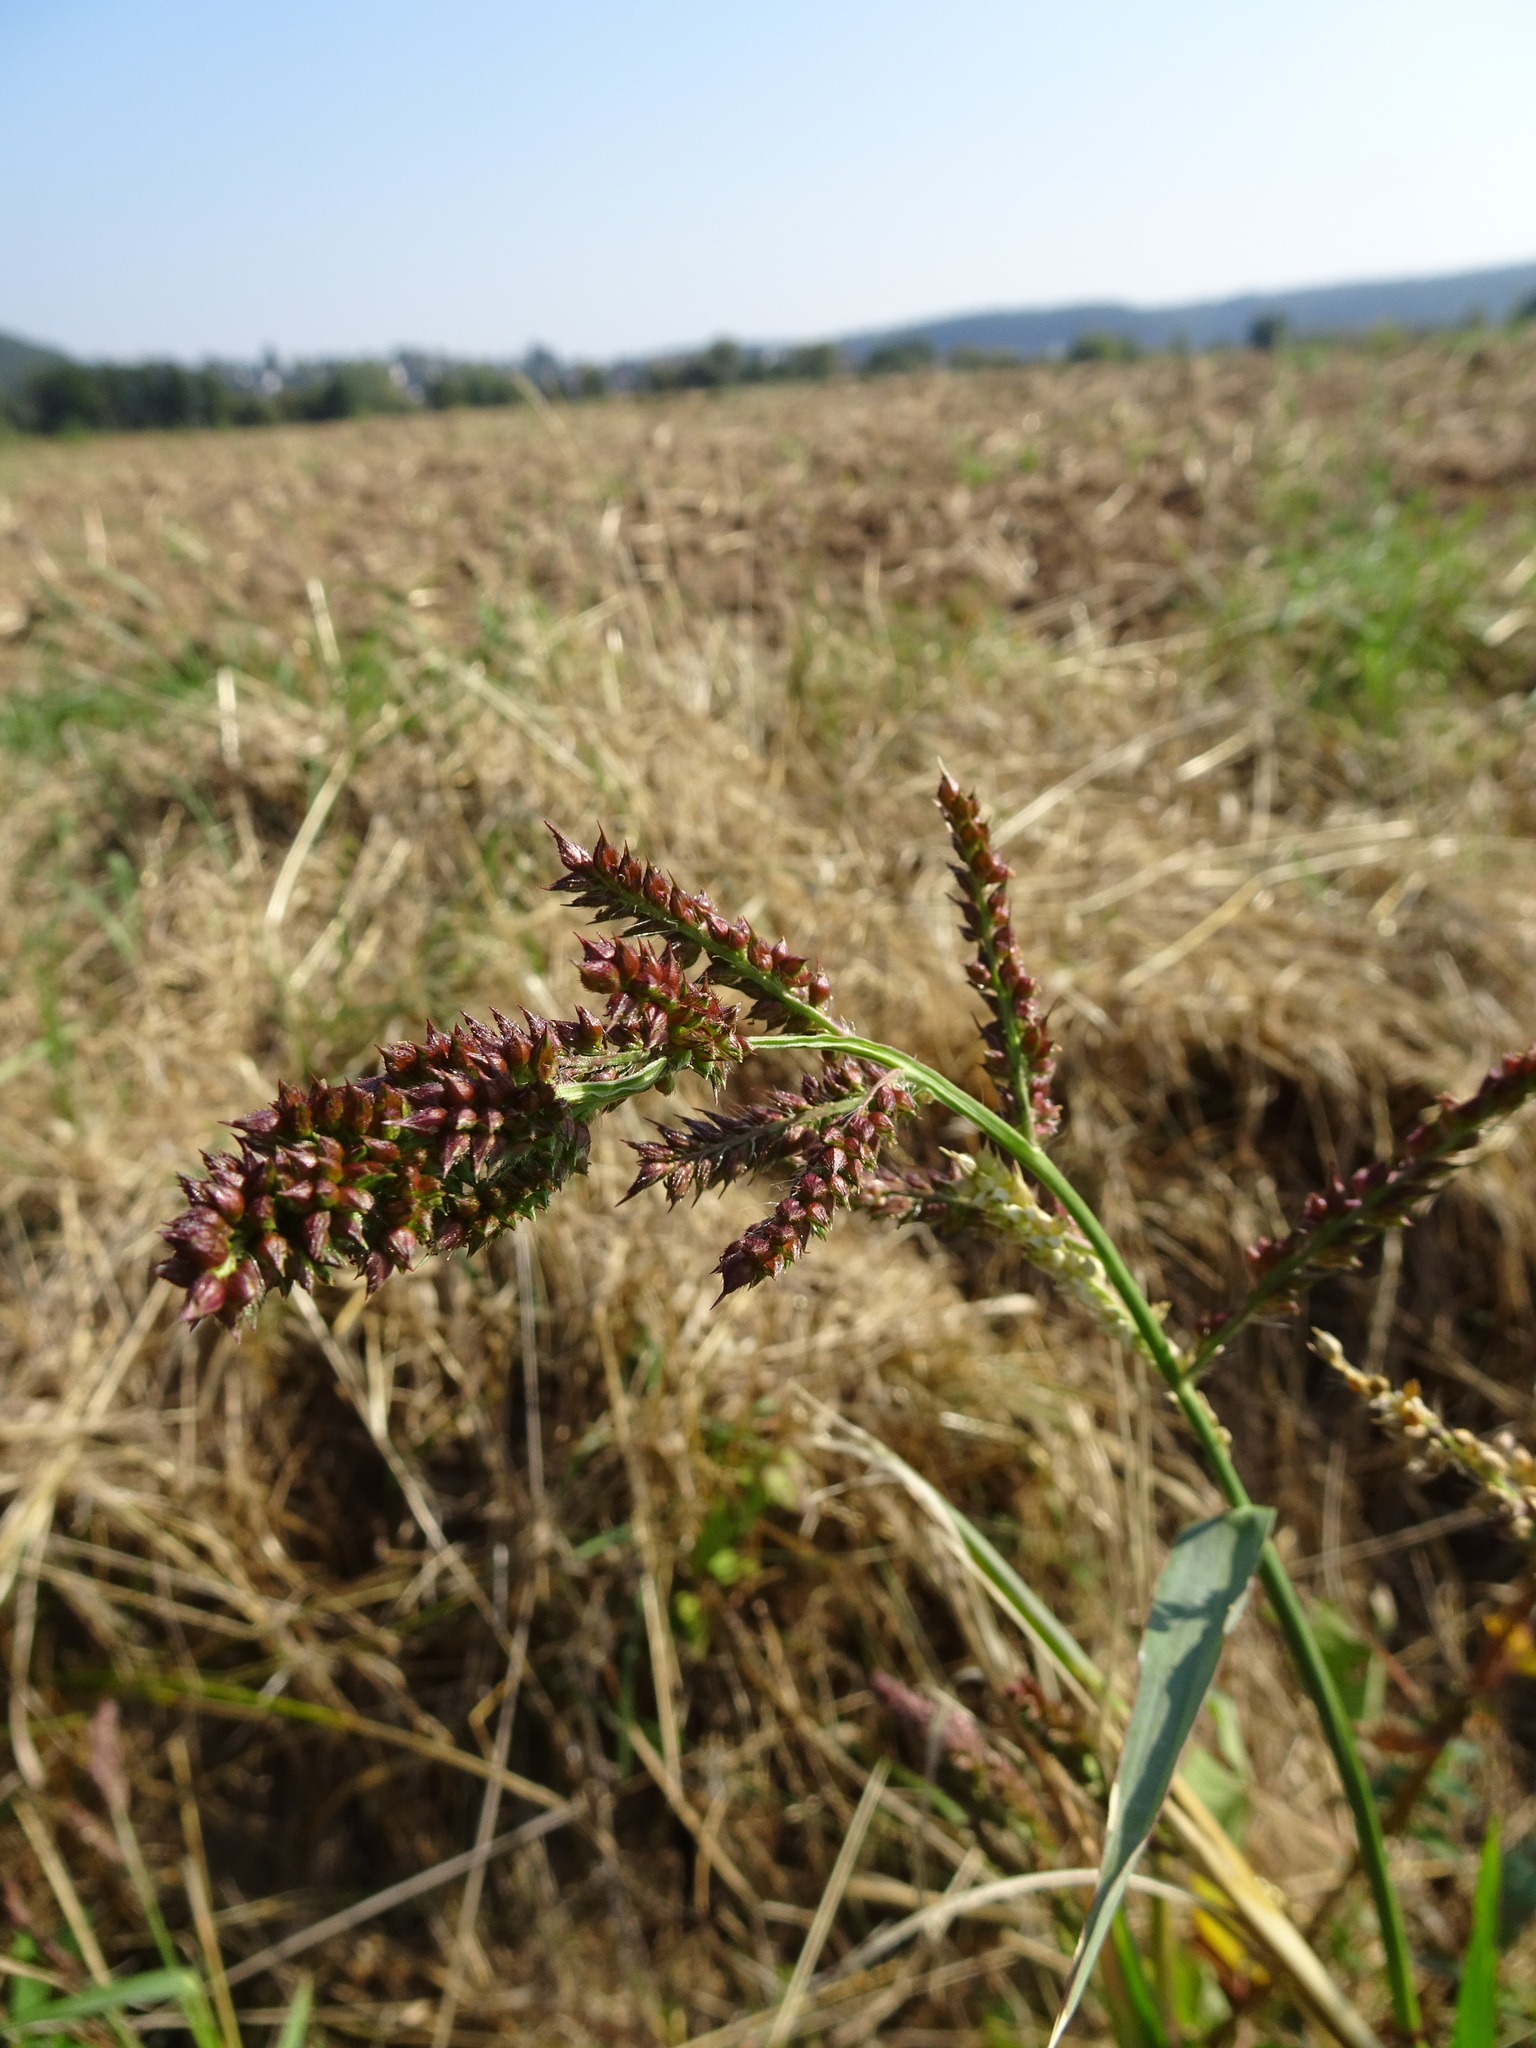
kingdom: Plantae
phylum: Tracheophyta
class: Liliopsida
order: Poales
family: Poaceae
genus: Echinochloa
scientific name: Echinochloa crus-galli
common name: Cockspur
